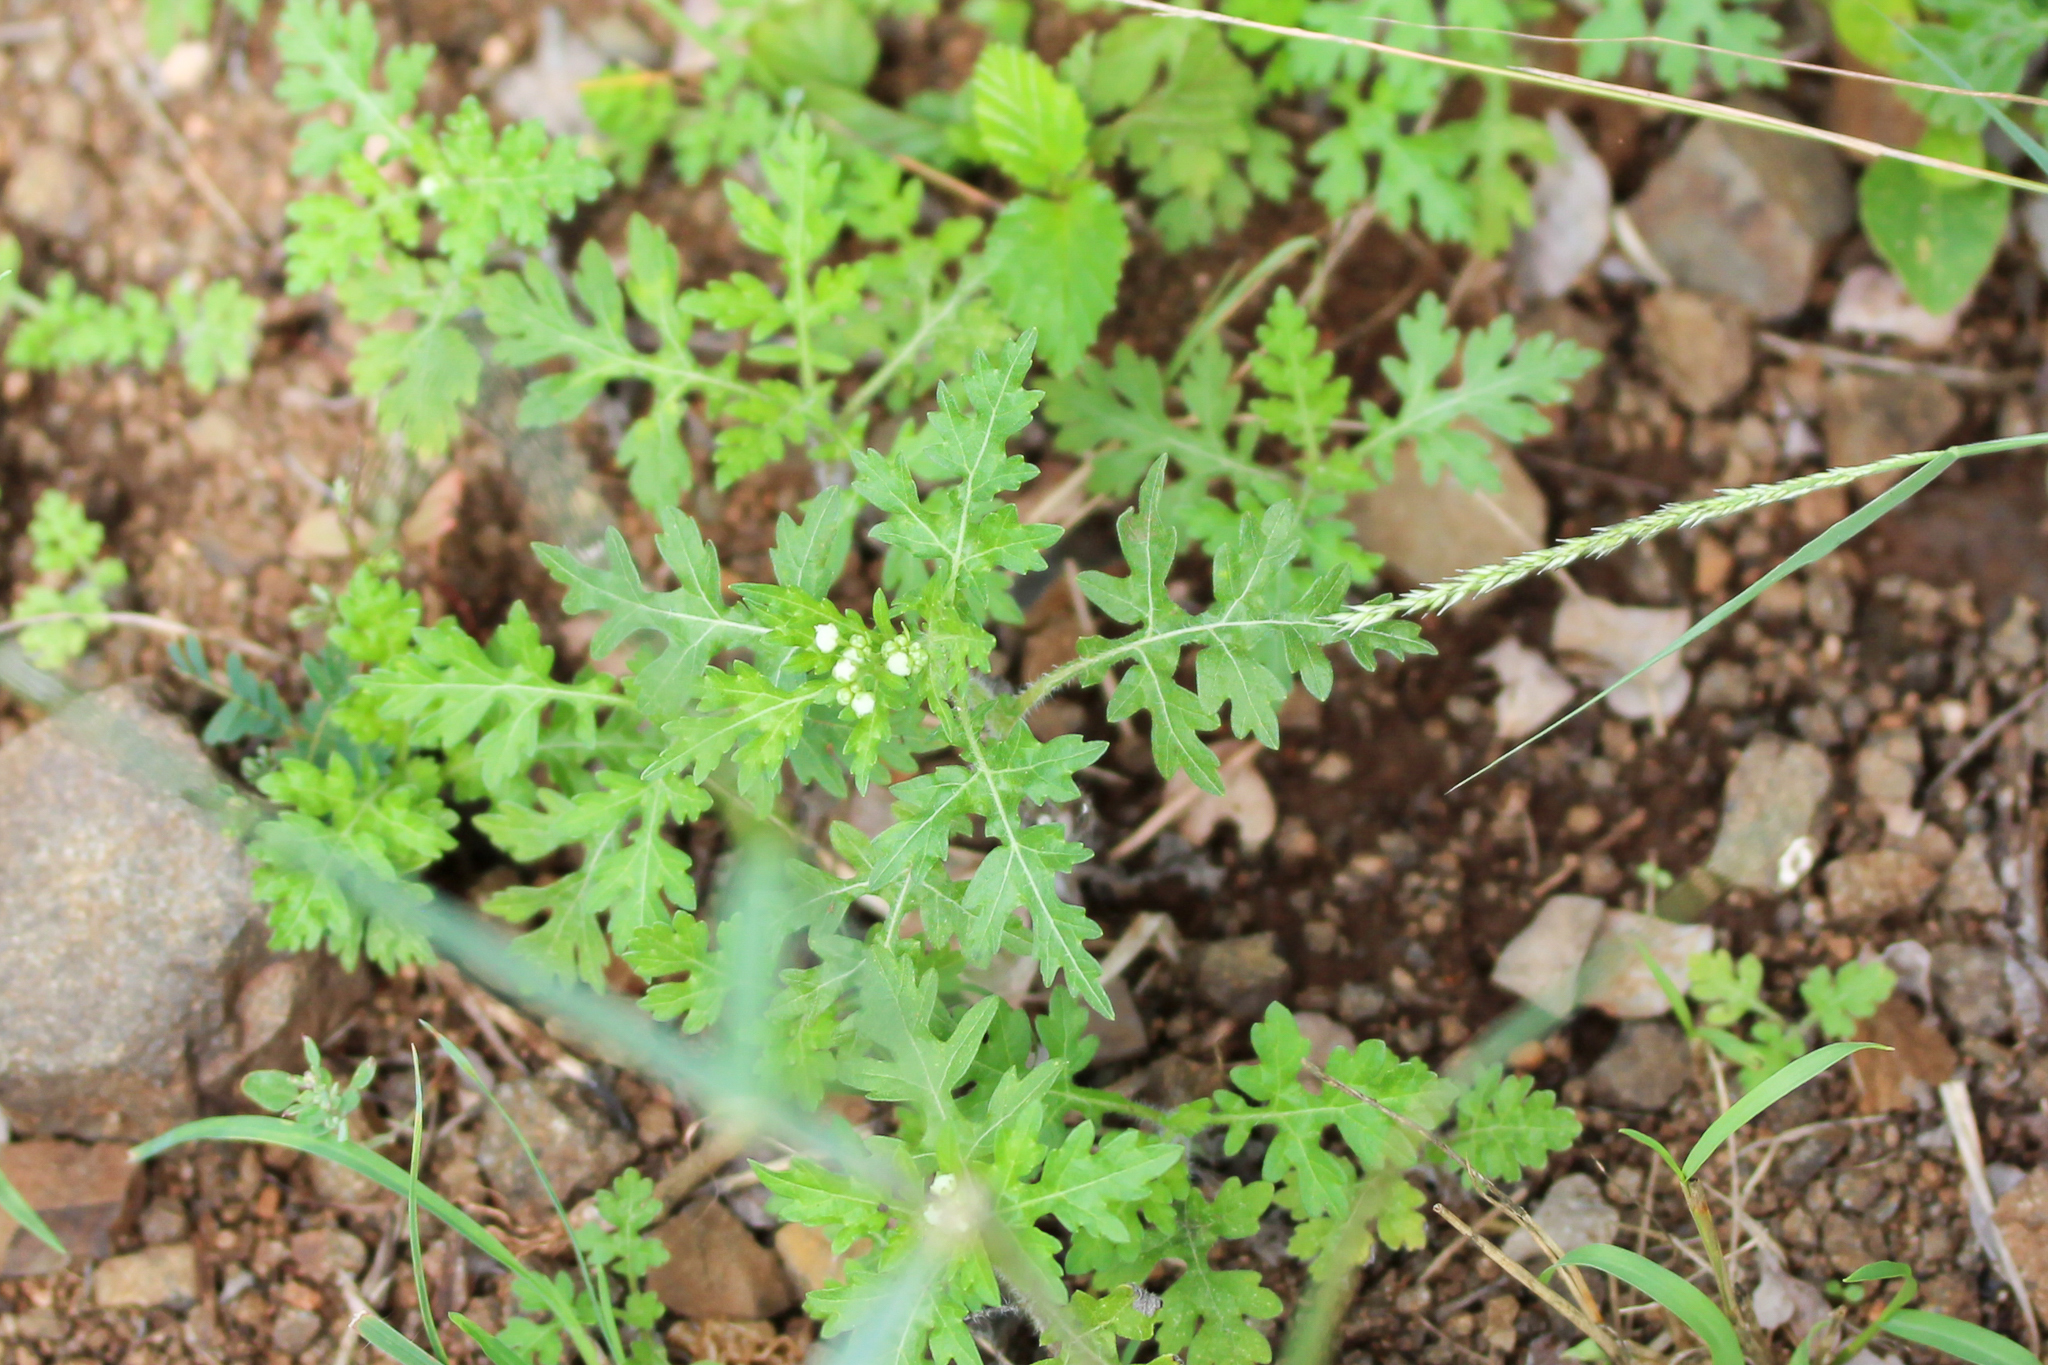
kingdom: Plantae
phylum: Tracheophyta
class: Magnoliopsida
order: Asterales
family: Asteraceae
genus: Parthenium
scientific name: Parthenium hysterophorus
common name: Santa maria feverfew
